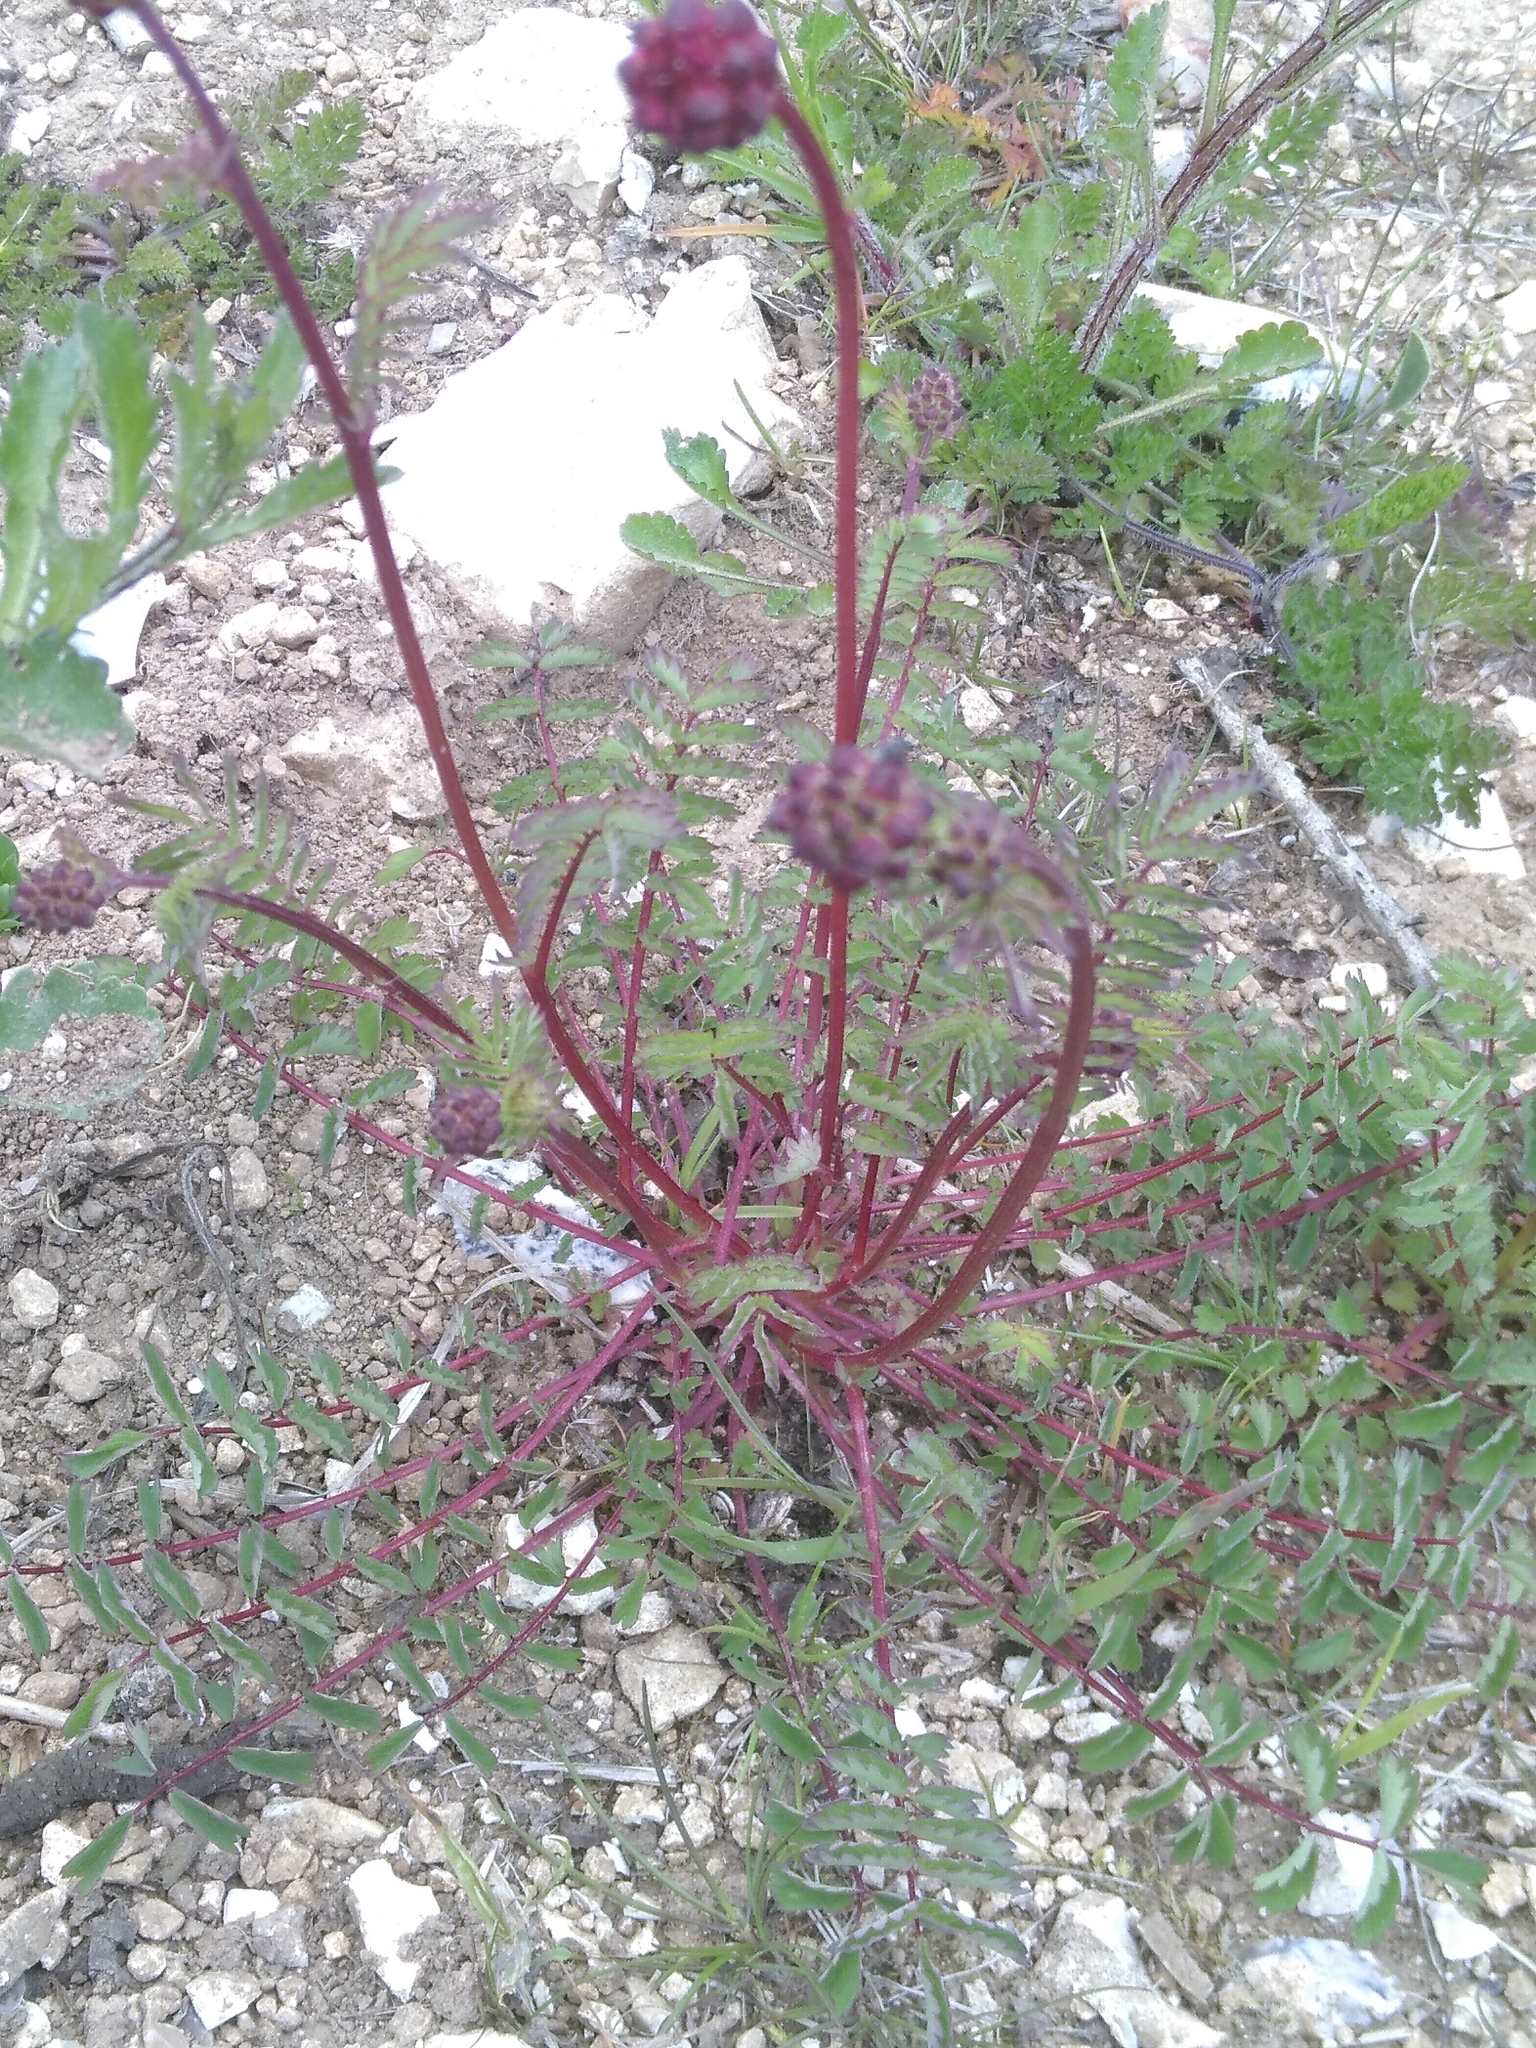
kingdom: Plantae
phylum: Tracheophyta
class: Magnoliopsida
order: Rosales
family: Rosaceae
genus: Poterium
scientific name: Poterium sanguisorba
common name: Salad burnet
